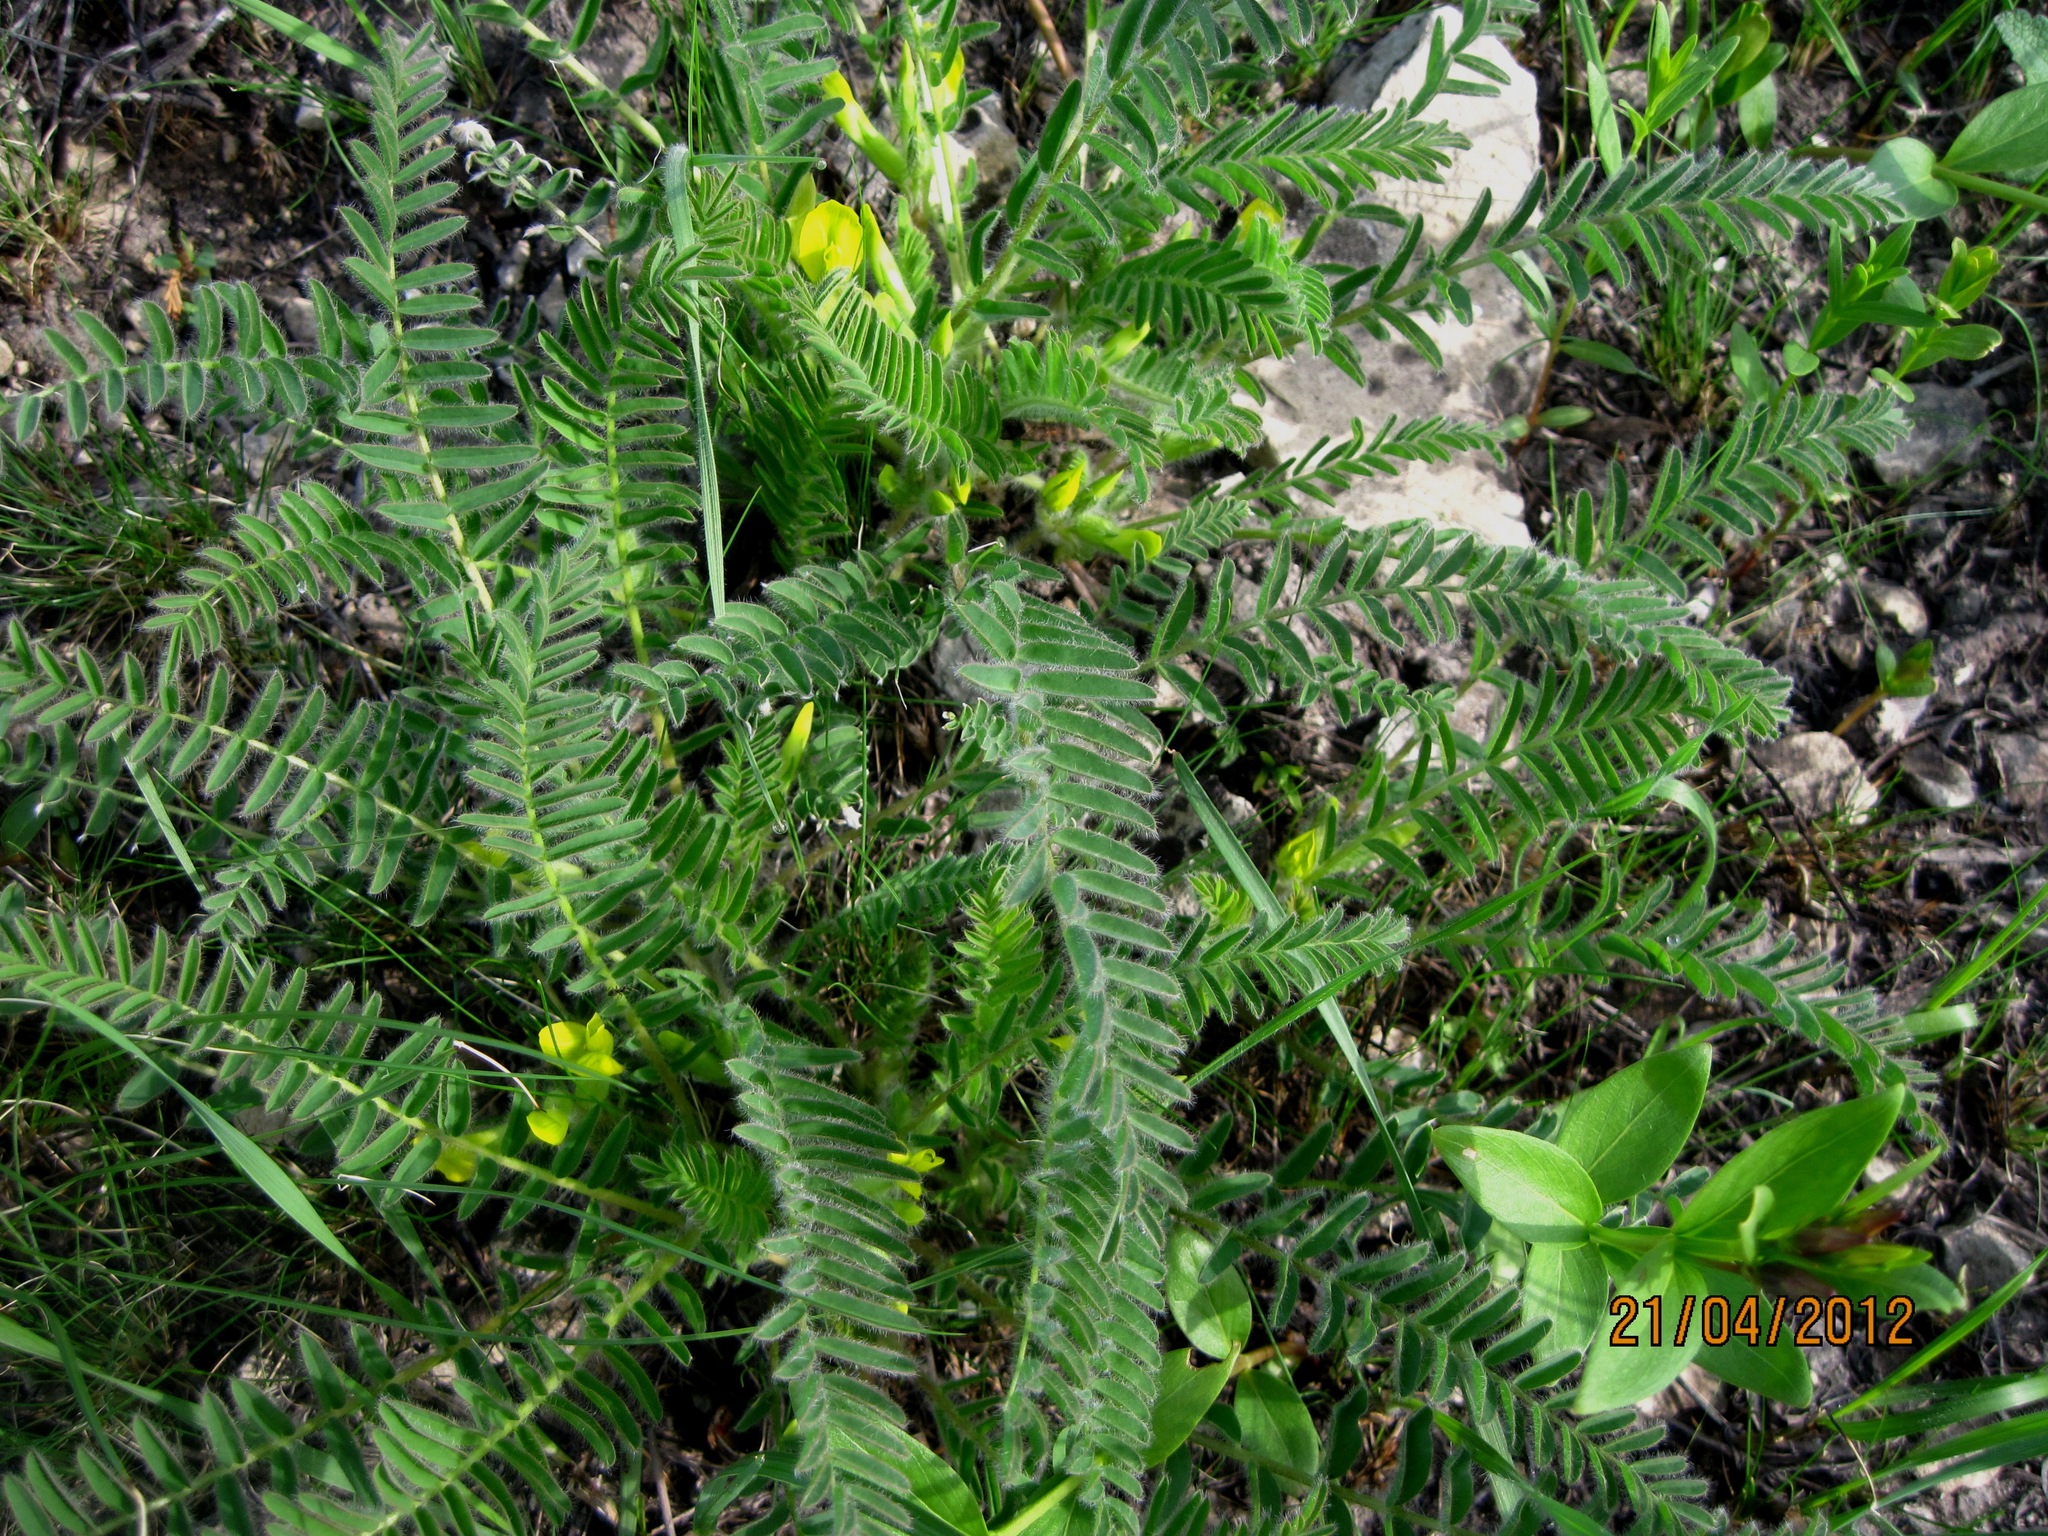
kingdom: Plantae
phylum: Tracheophyta
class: Magnoliopsida
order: Fabales
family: Fabaceae
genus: Astragalus
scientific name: Astragalus buchtormensis
